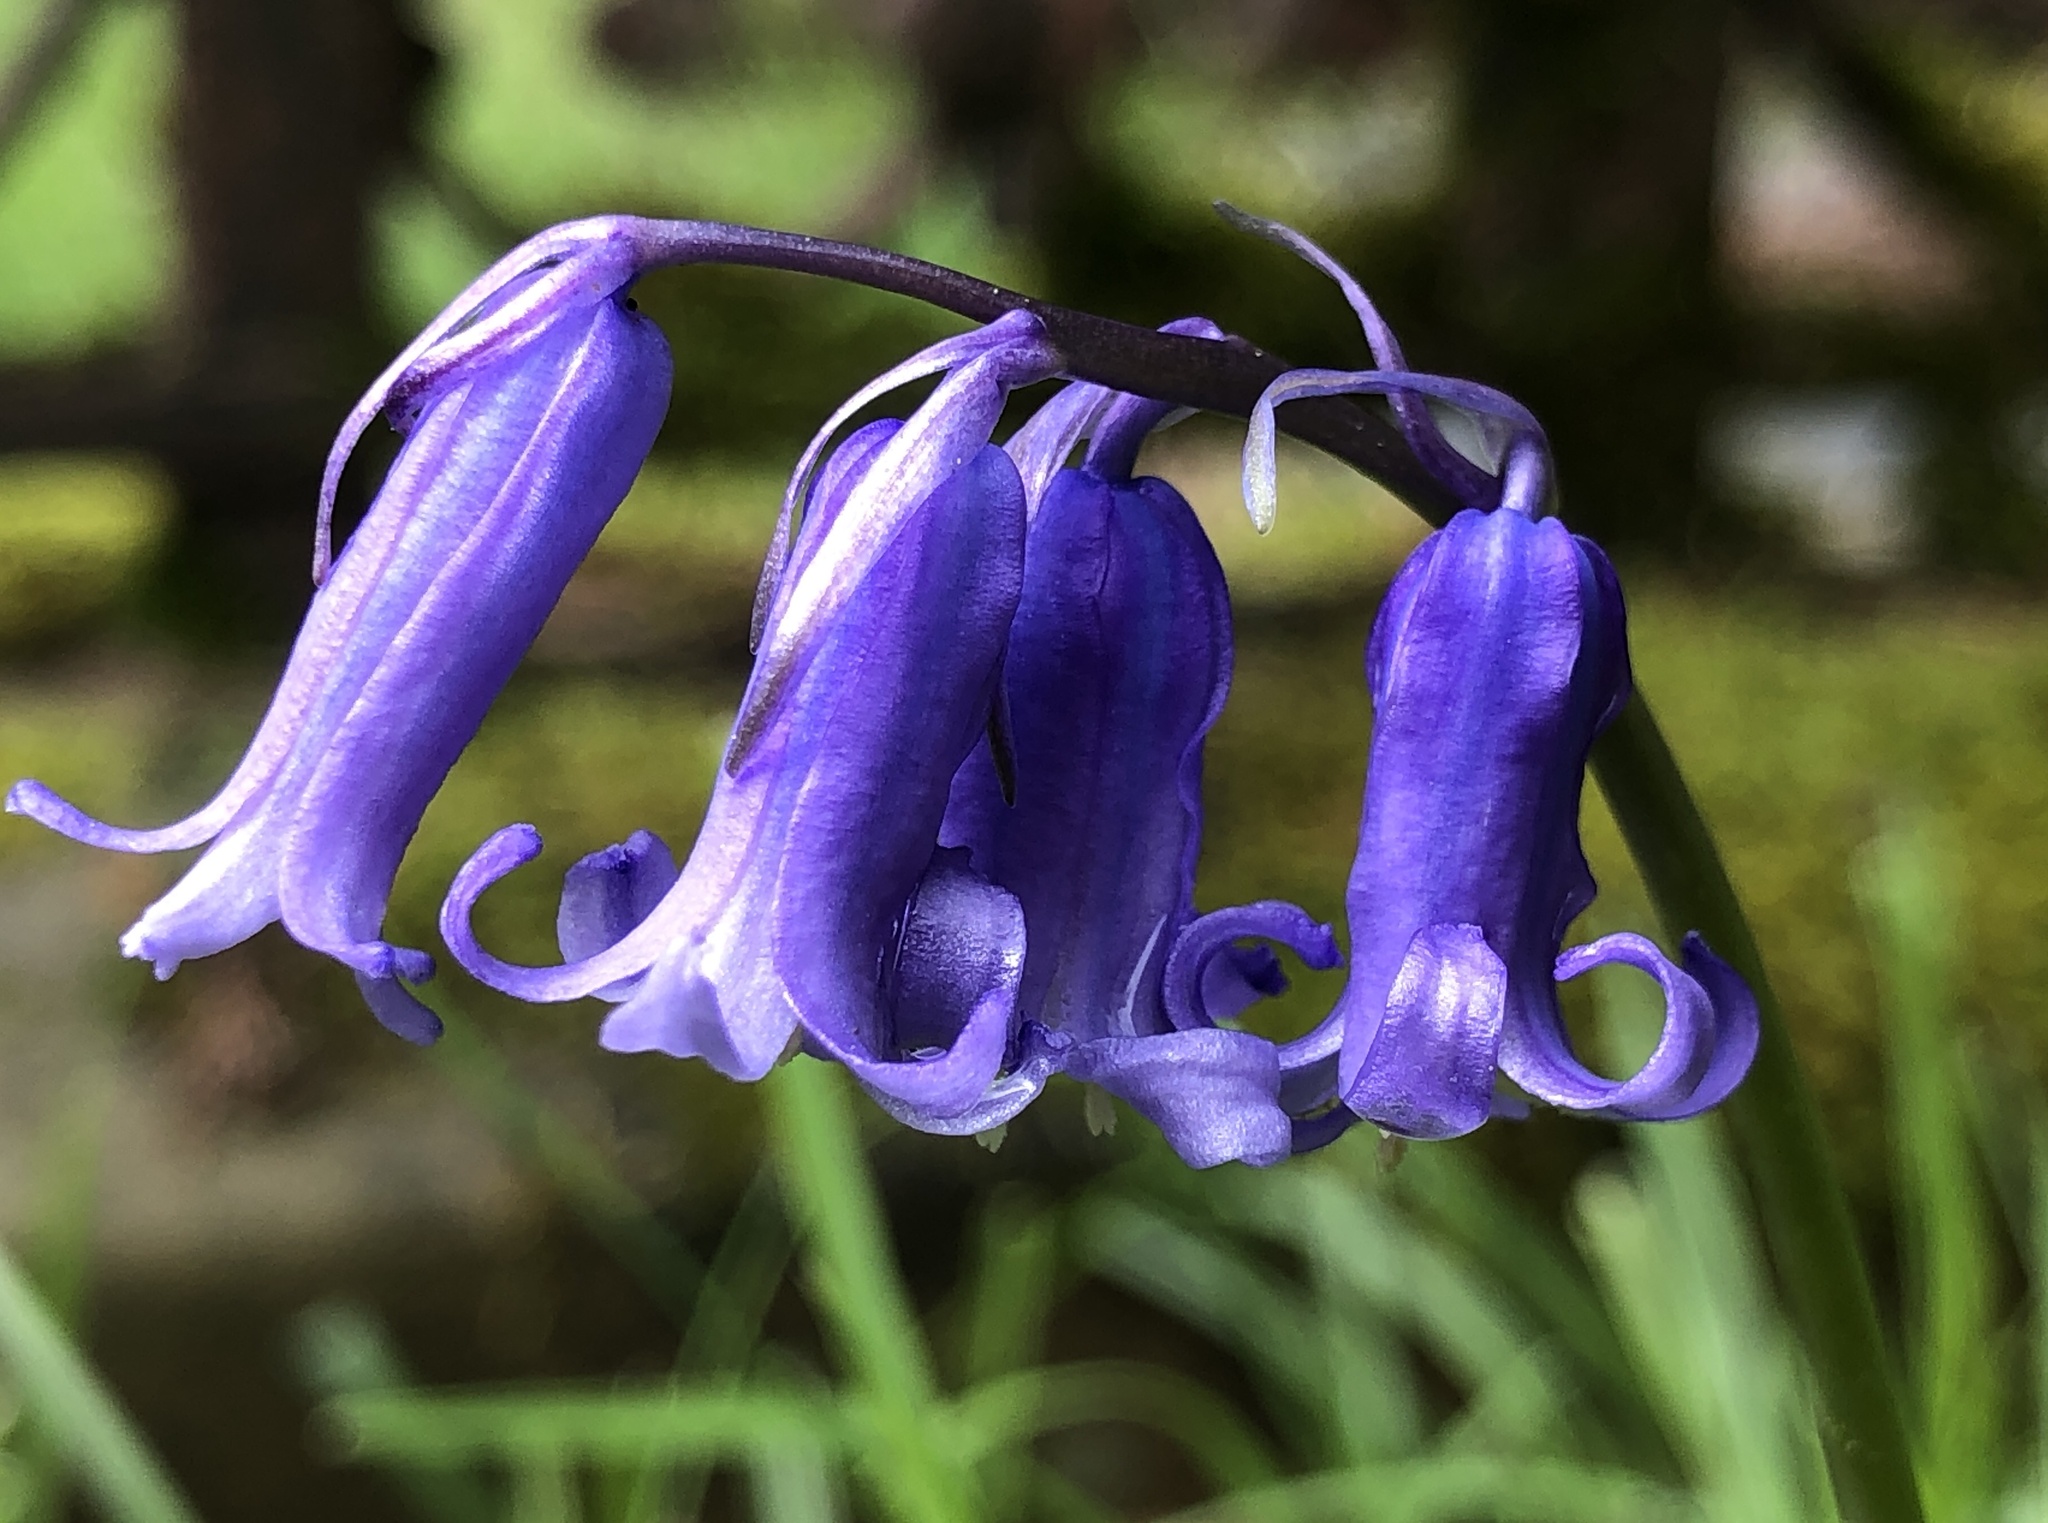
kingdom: Plantae
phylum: Tracheophyta
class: Liliopsida
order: Asparagales
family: Asparagaceae
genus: Hyacinthoides
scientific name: Hyacinthoides non-scripta
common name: Bluebell
